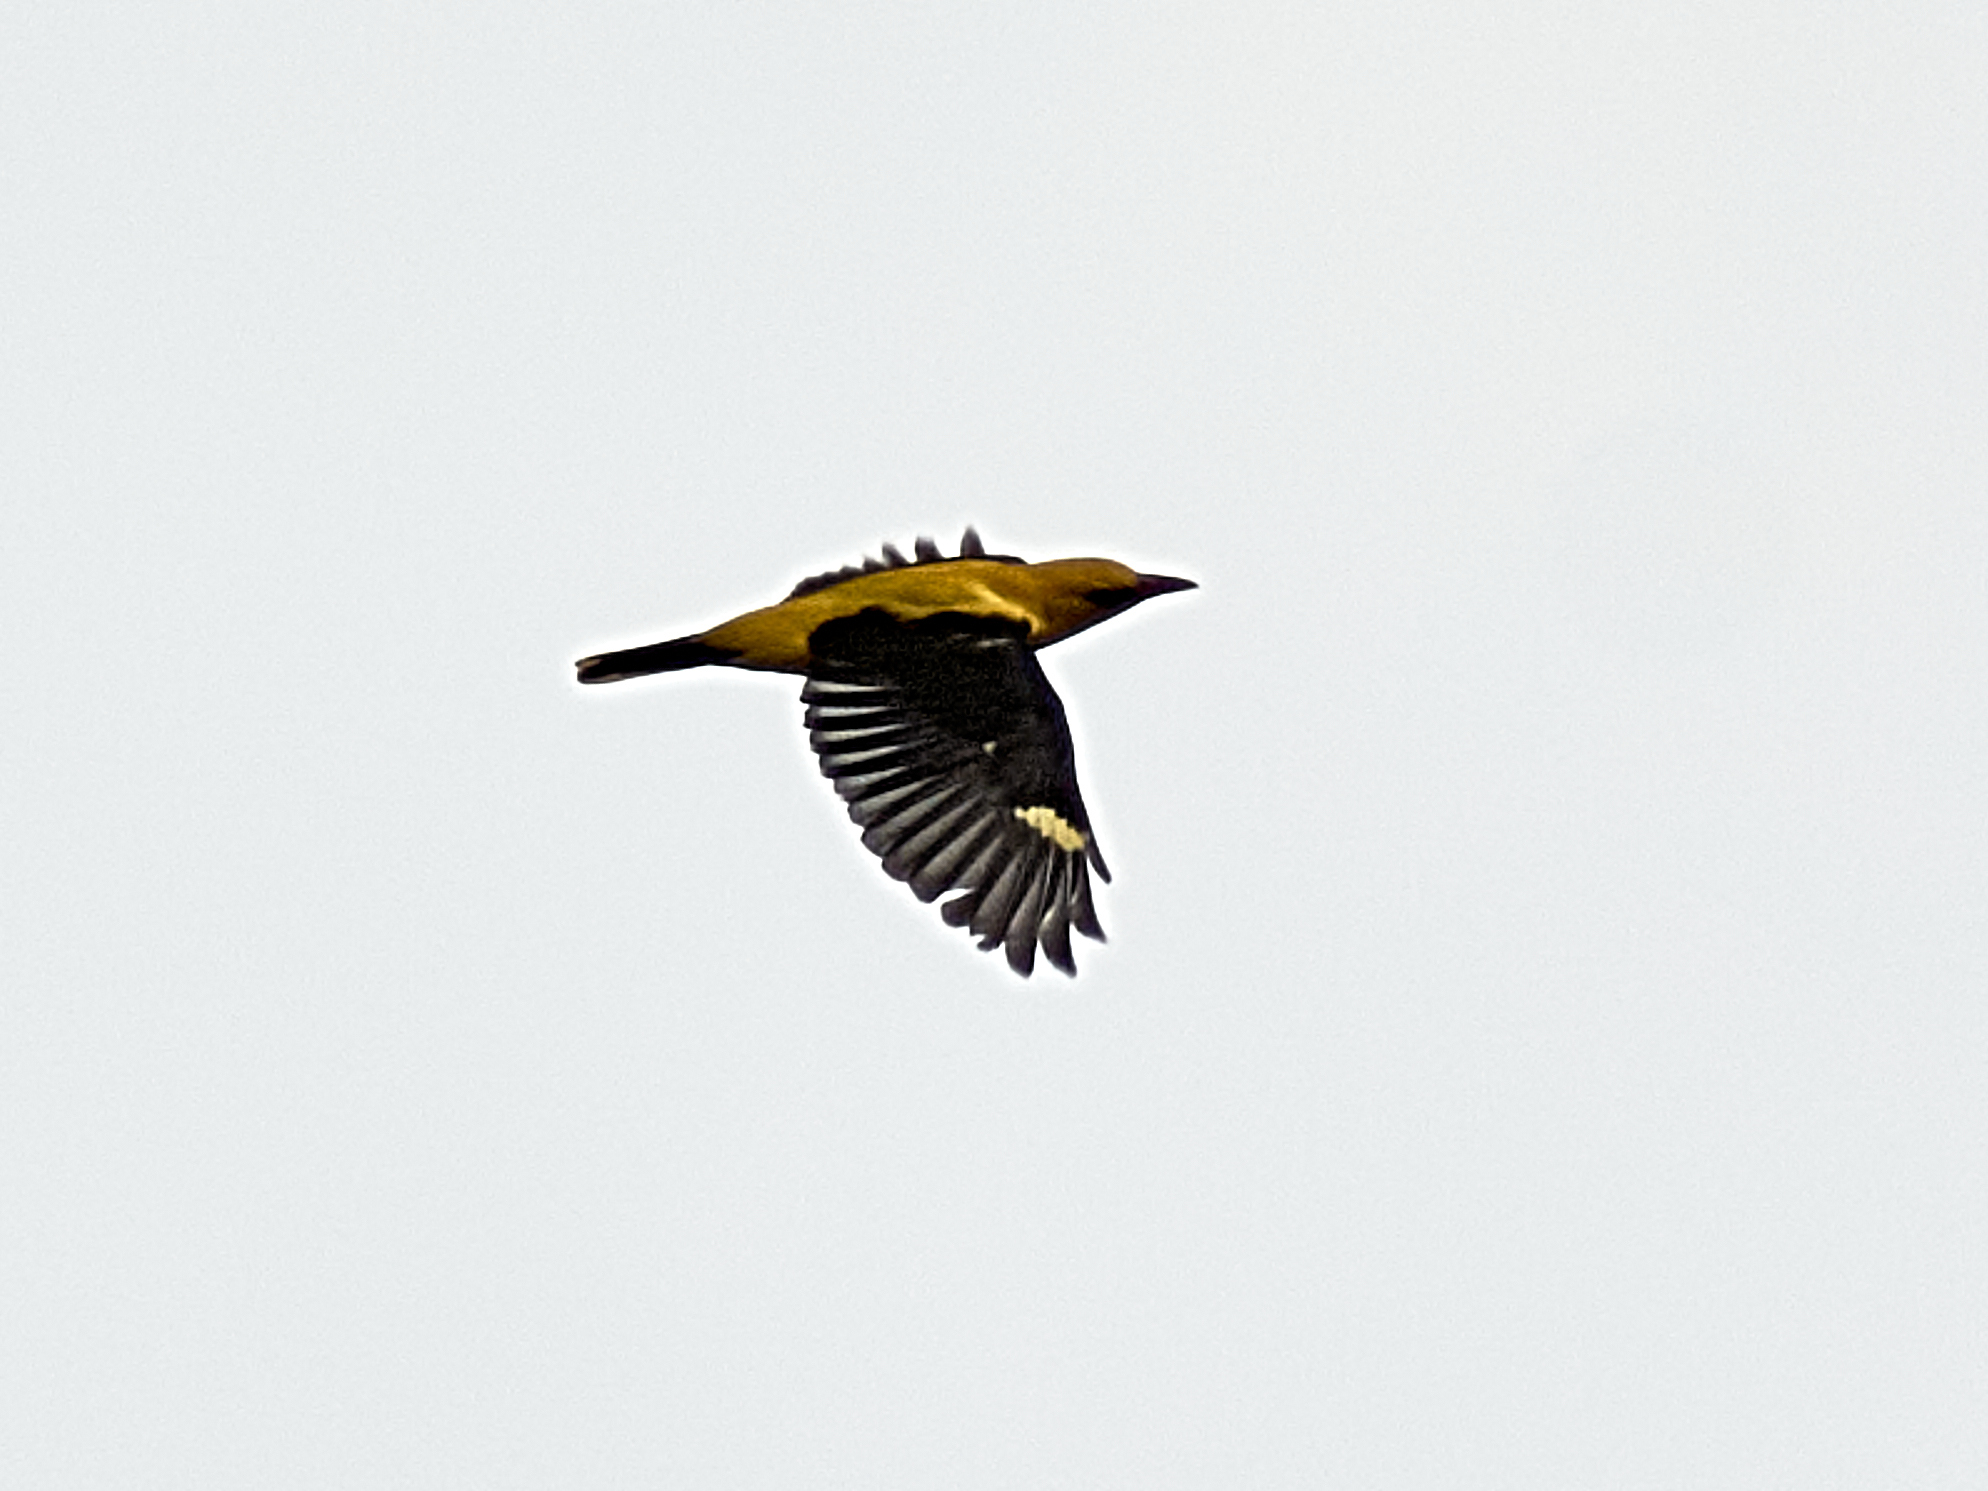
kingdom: Animalia
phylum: Chordata
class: Aves
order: Passeriformes
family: Oriolidae
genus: Oriolus
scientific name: Oriolus oriolus
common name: Eurasian golden oriole
